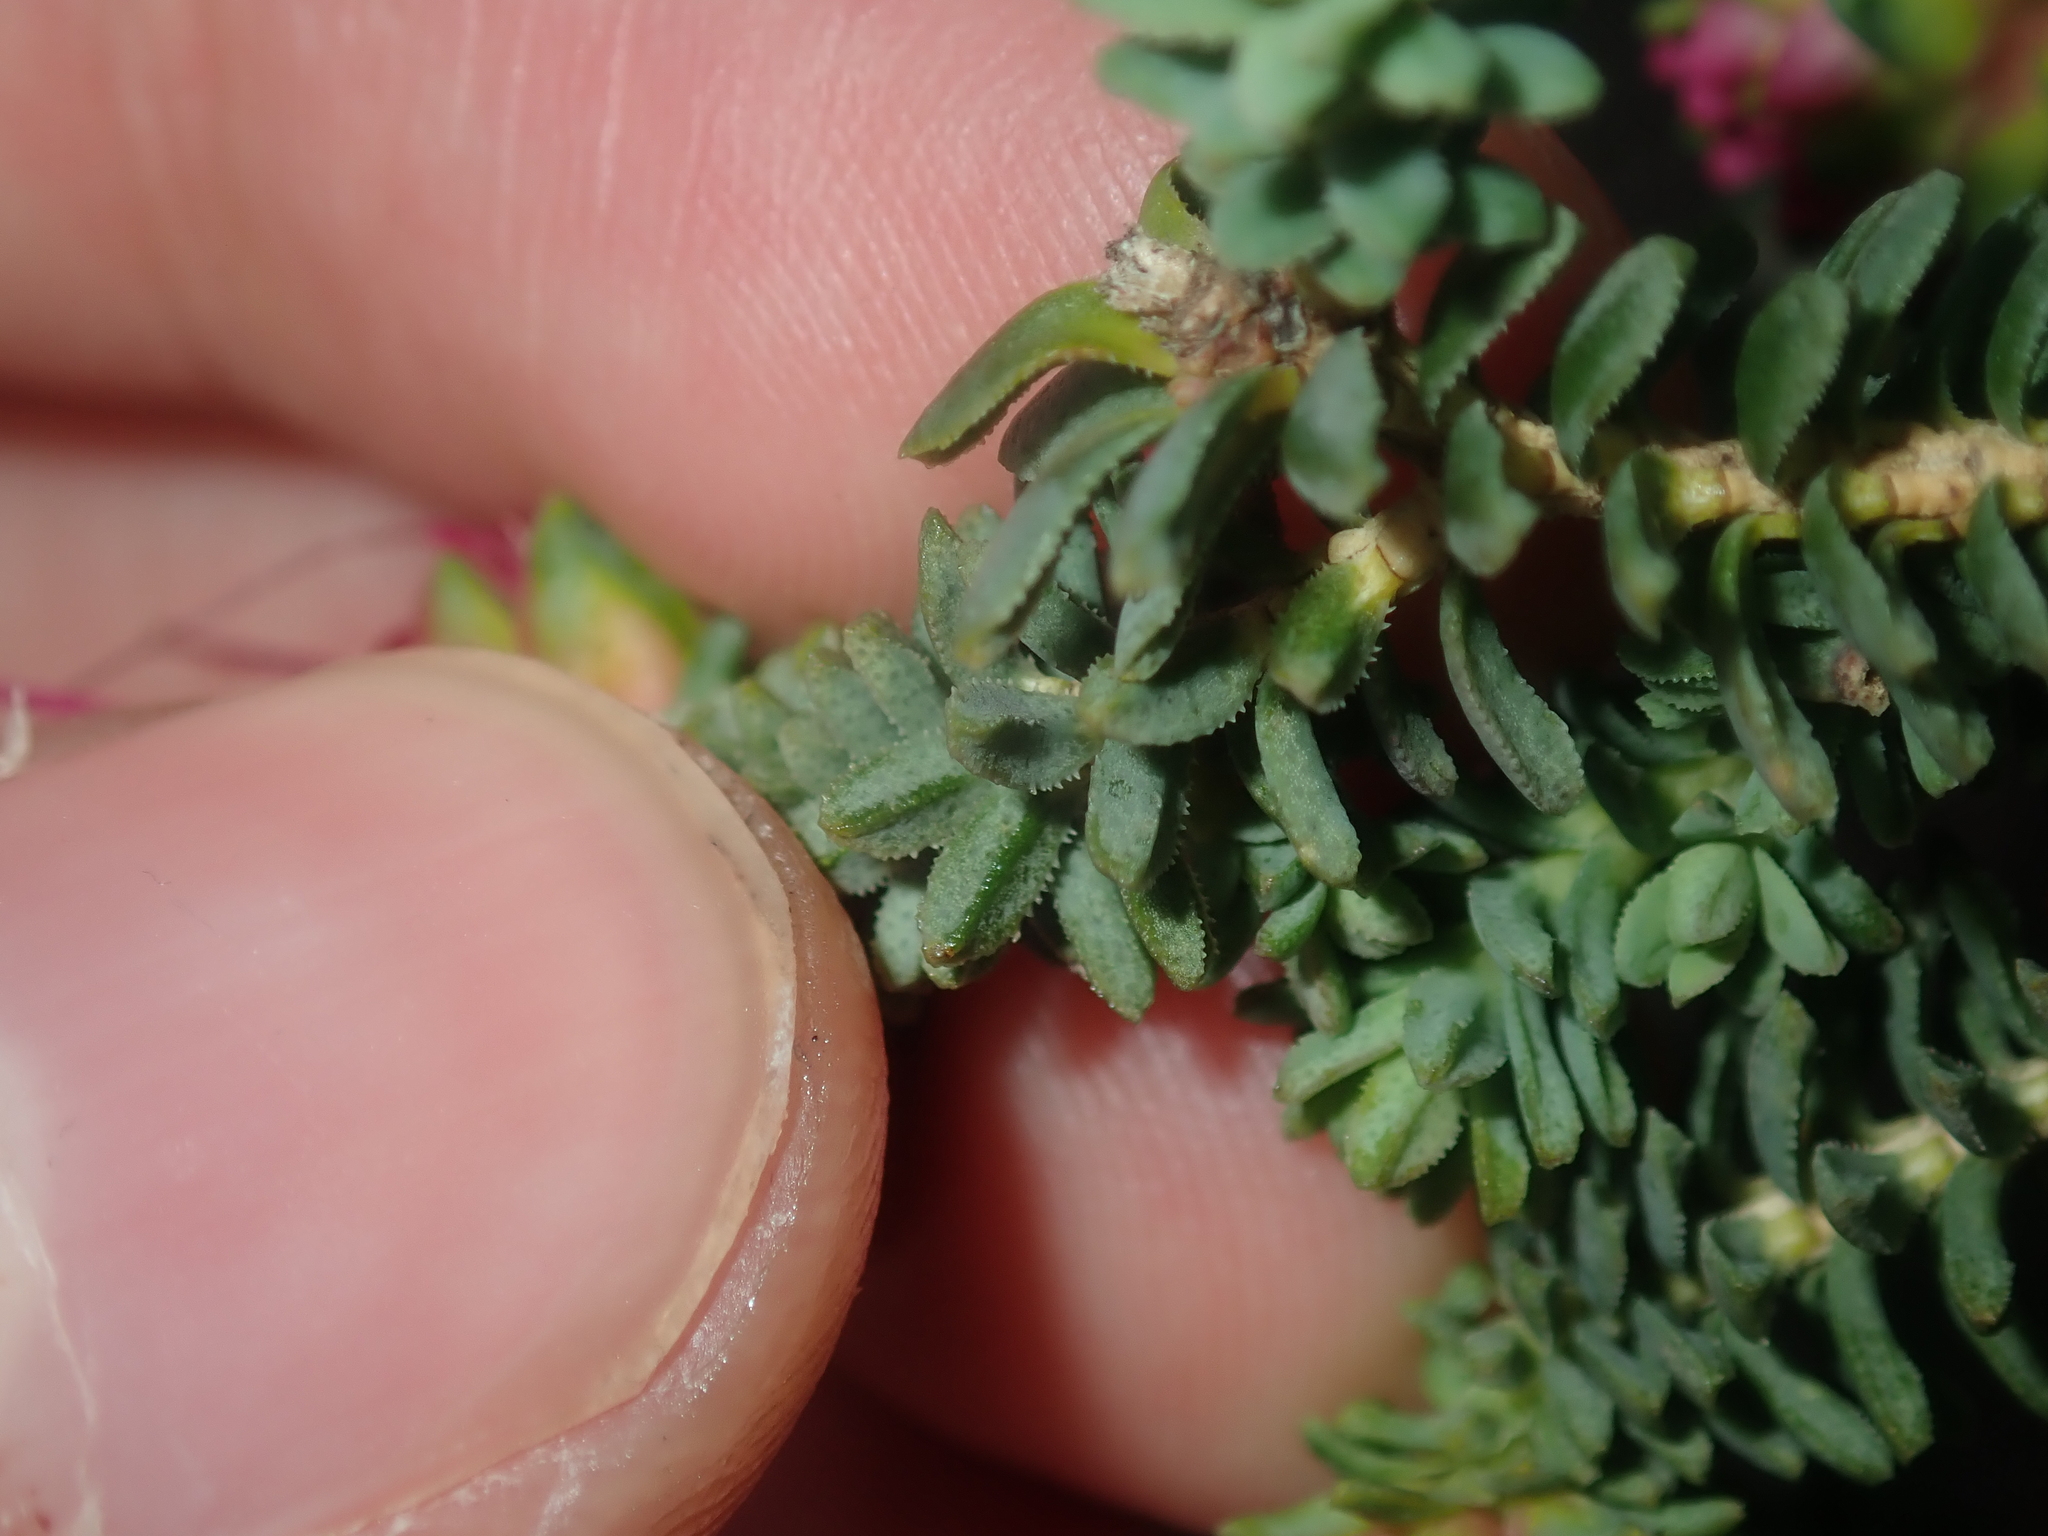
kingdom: Plantae
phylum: Tracheophyta
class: Magnoliopsida
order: Myrtales
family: Myrtaceae
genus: Darwinia
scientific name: Darwinia oldfieldii
